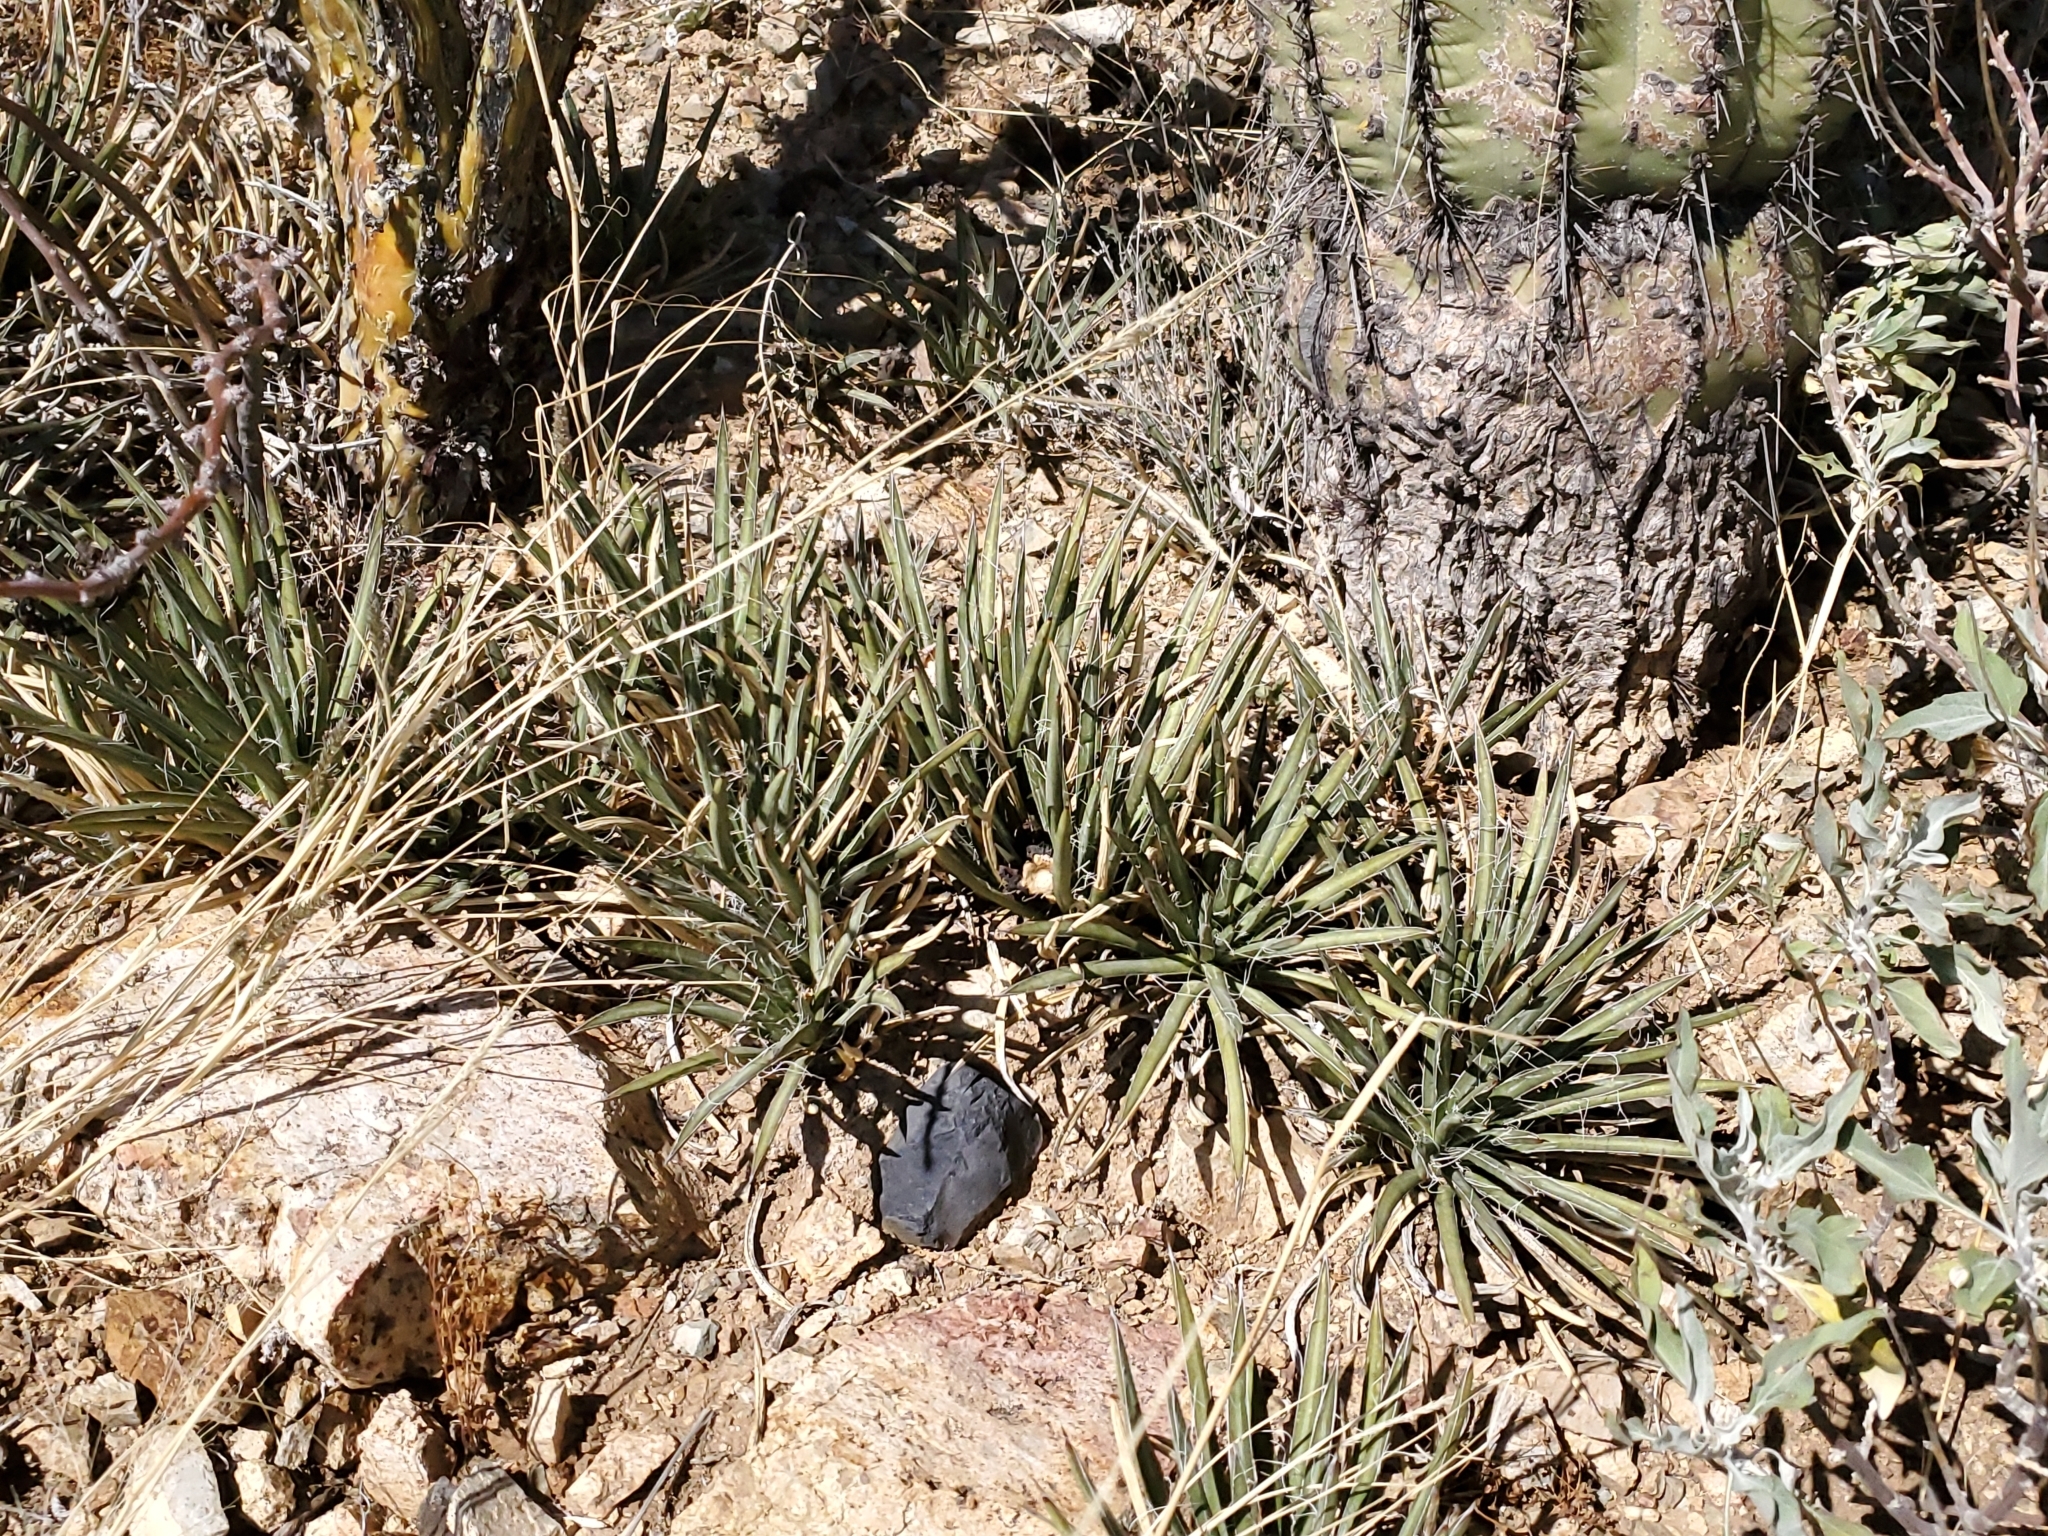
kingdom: Plantae
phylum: Tracheophyta
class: Liliopsida
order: Asparagales
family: Asparagaceae
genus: Agave
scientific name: Agave schottii
